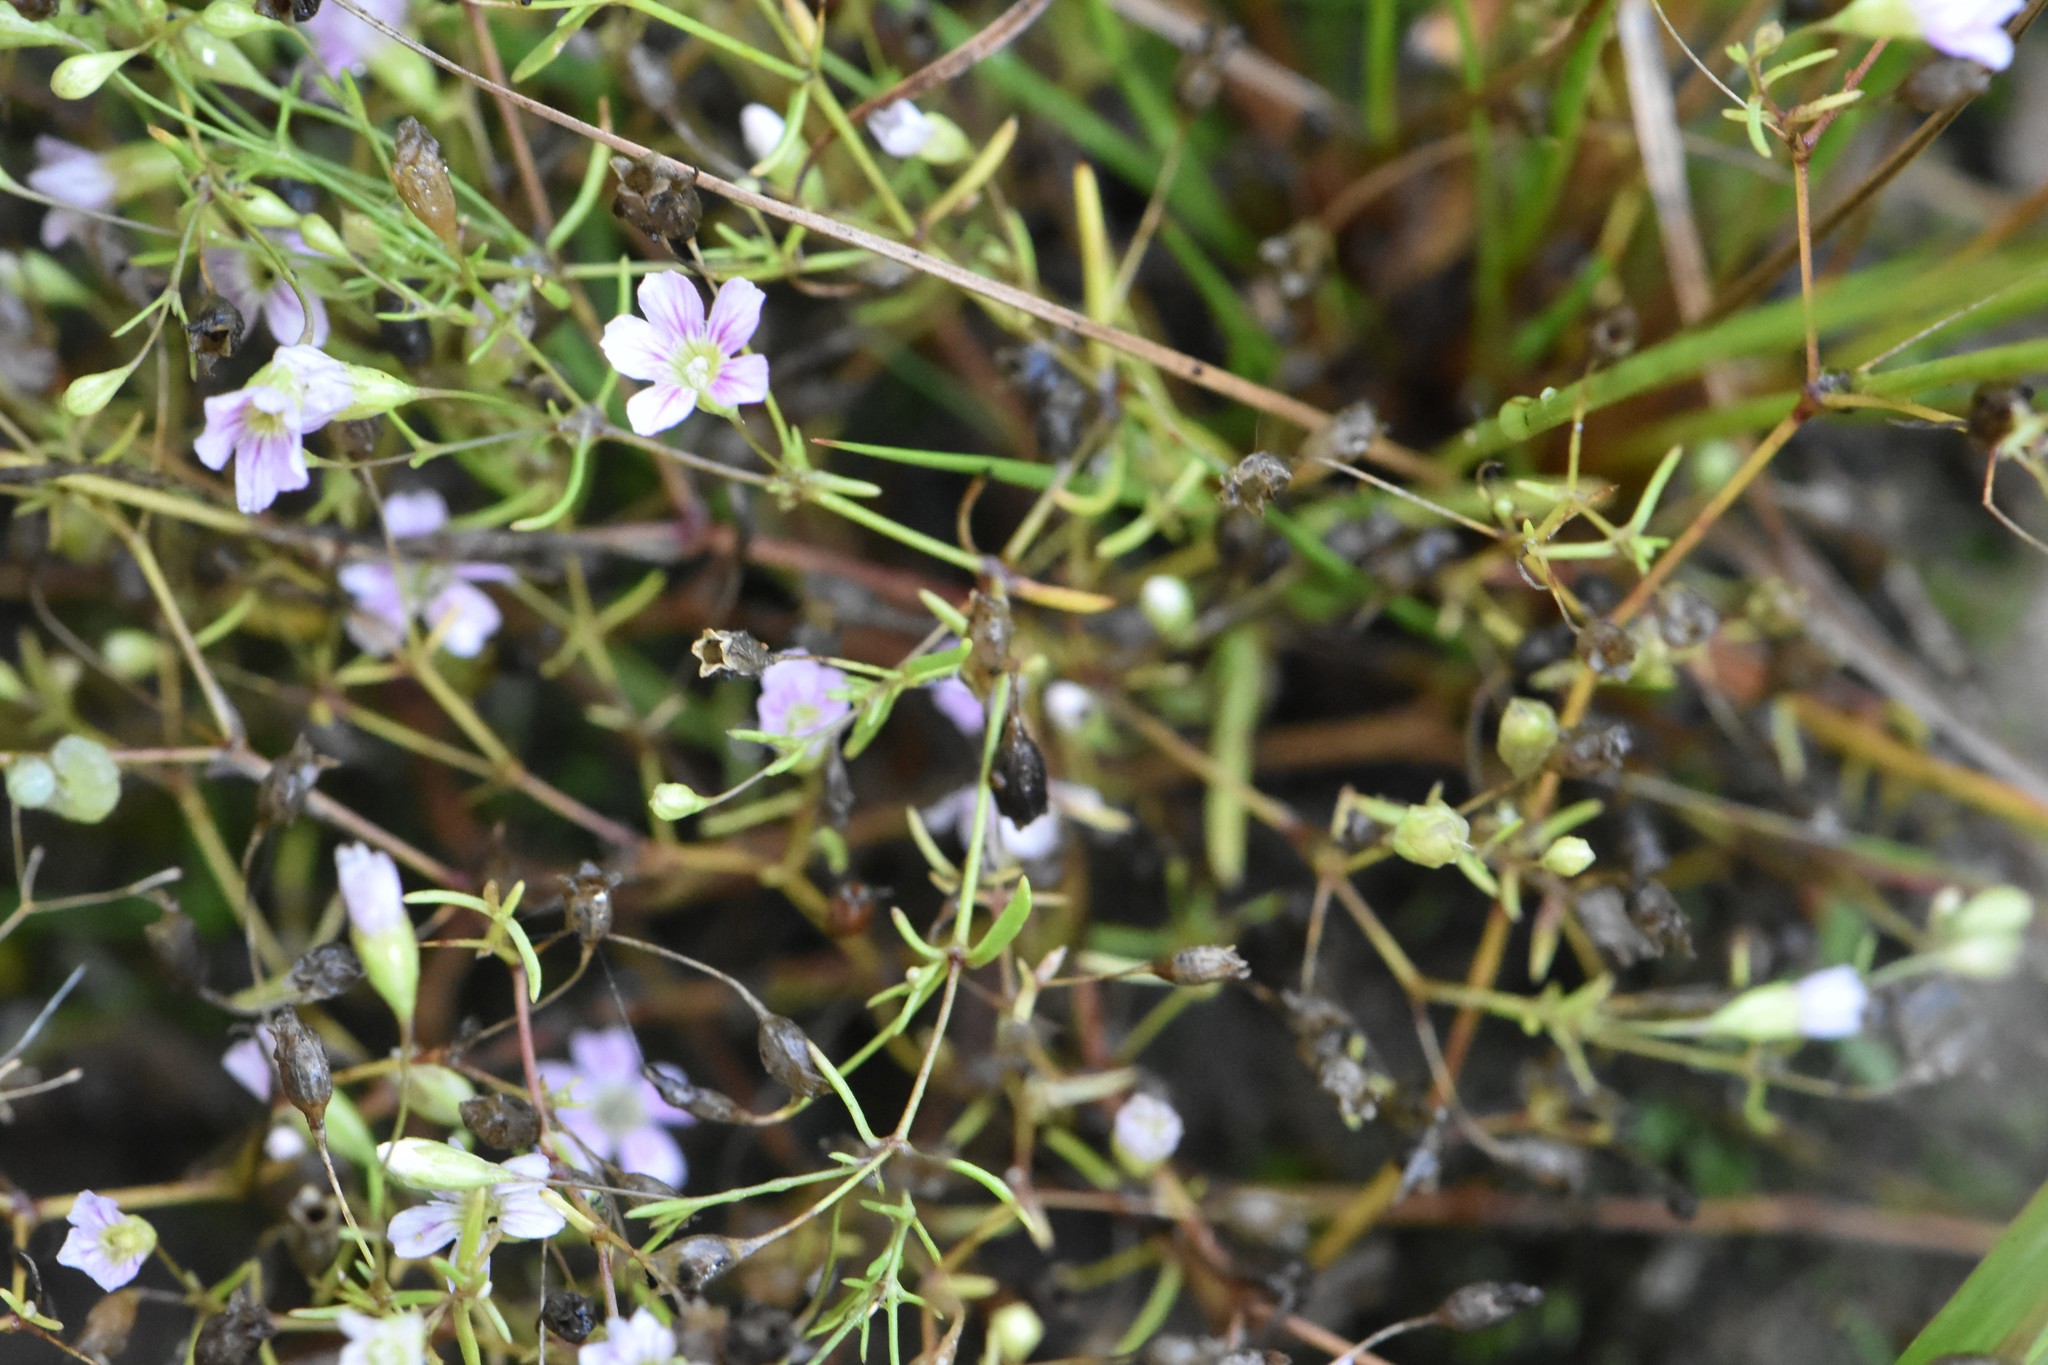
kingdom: Plantae
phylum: Tracheophyta
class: Magnoliopsida
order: Caryophyllales
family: Caryophyllaceae
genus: Psammophiliella
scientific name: Psammophiliella muralis
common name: Cushion baby's-breath
